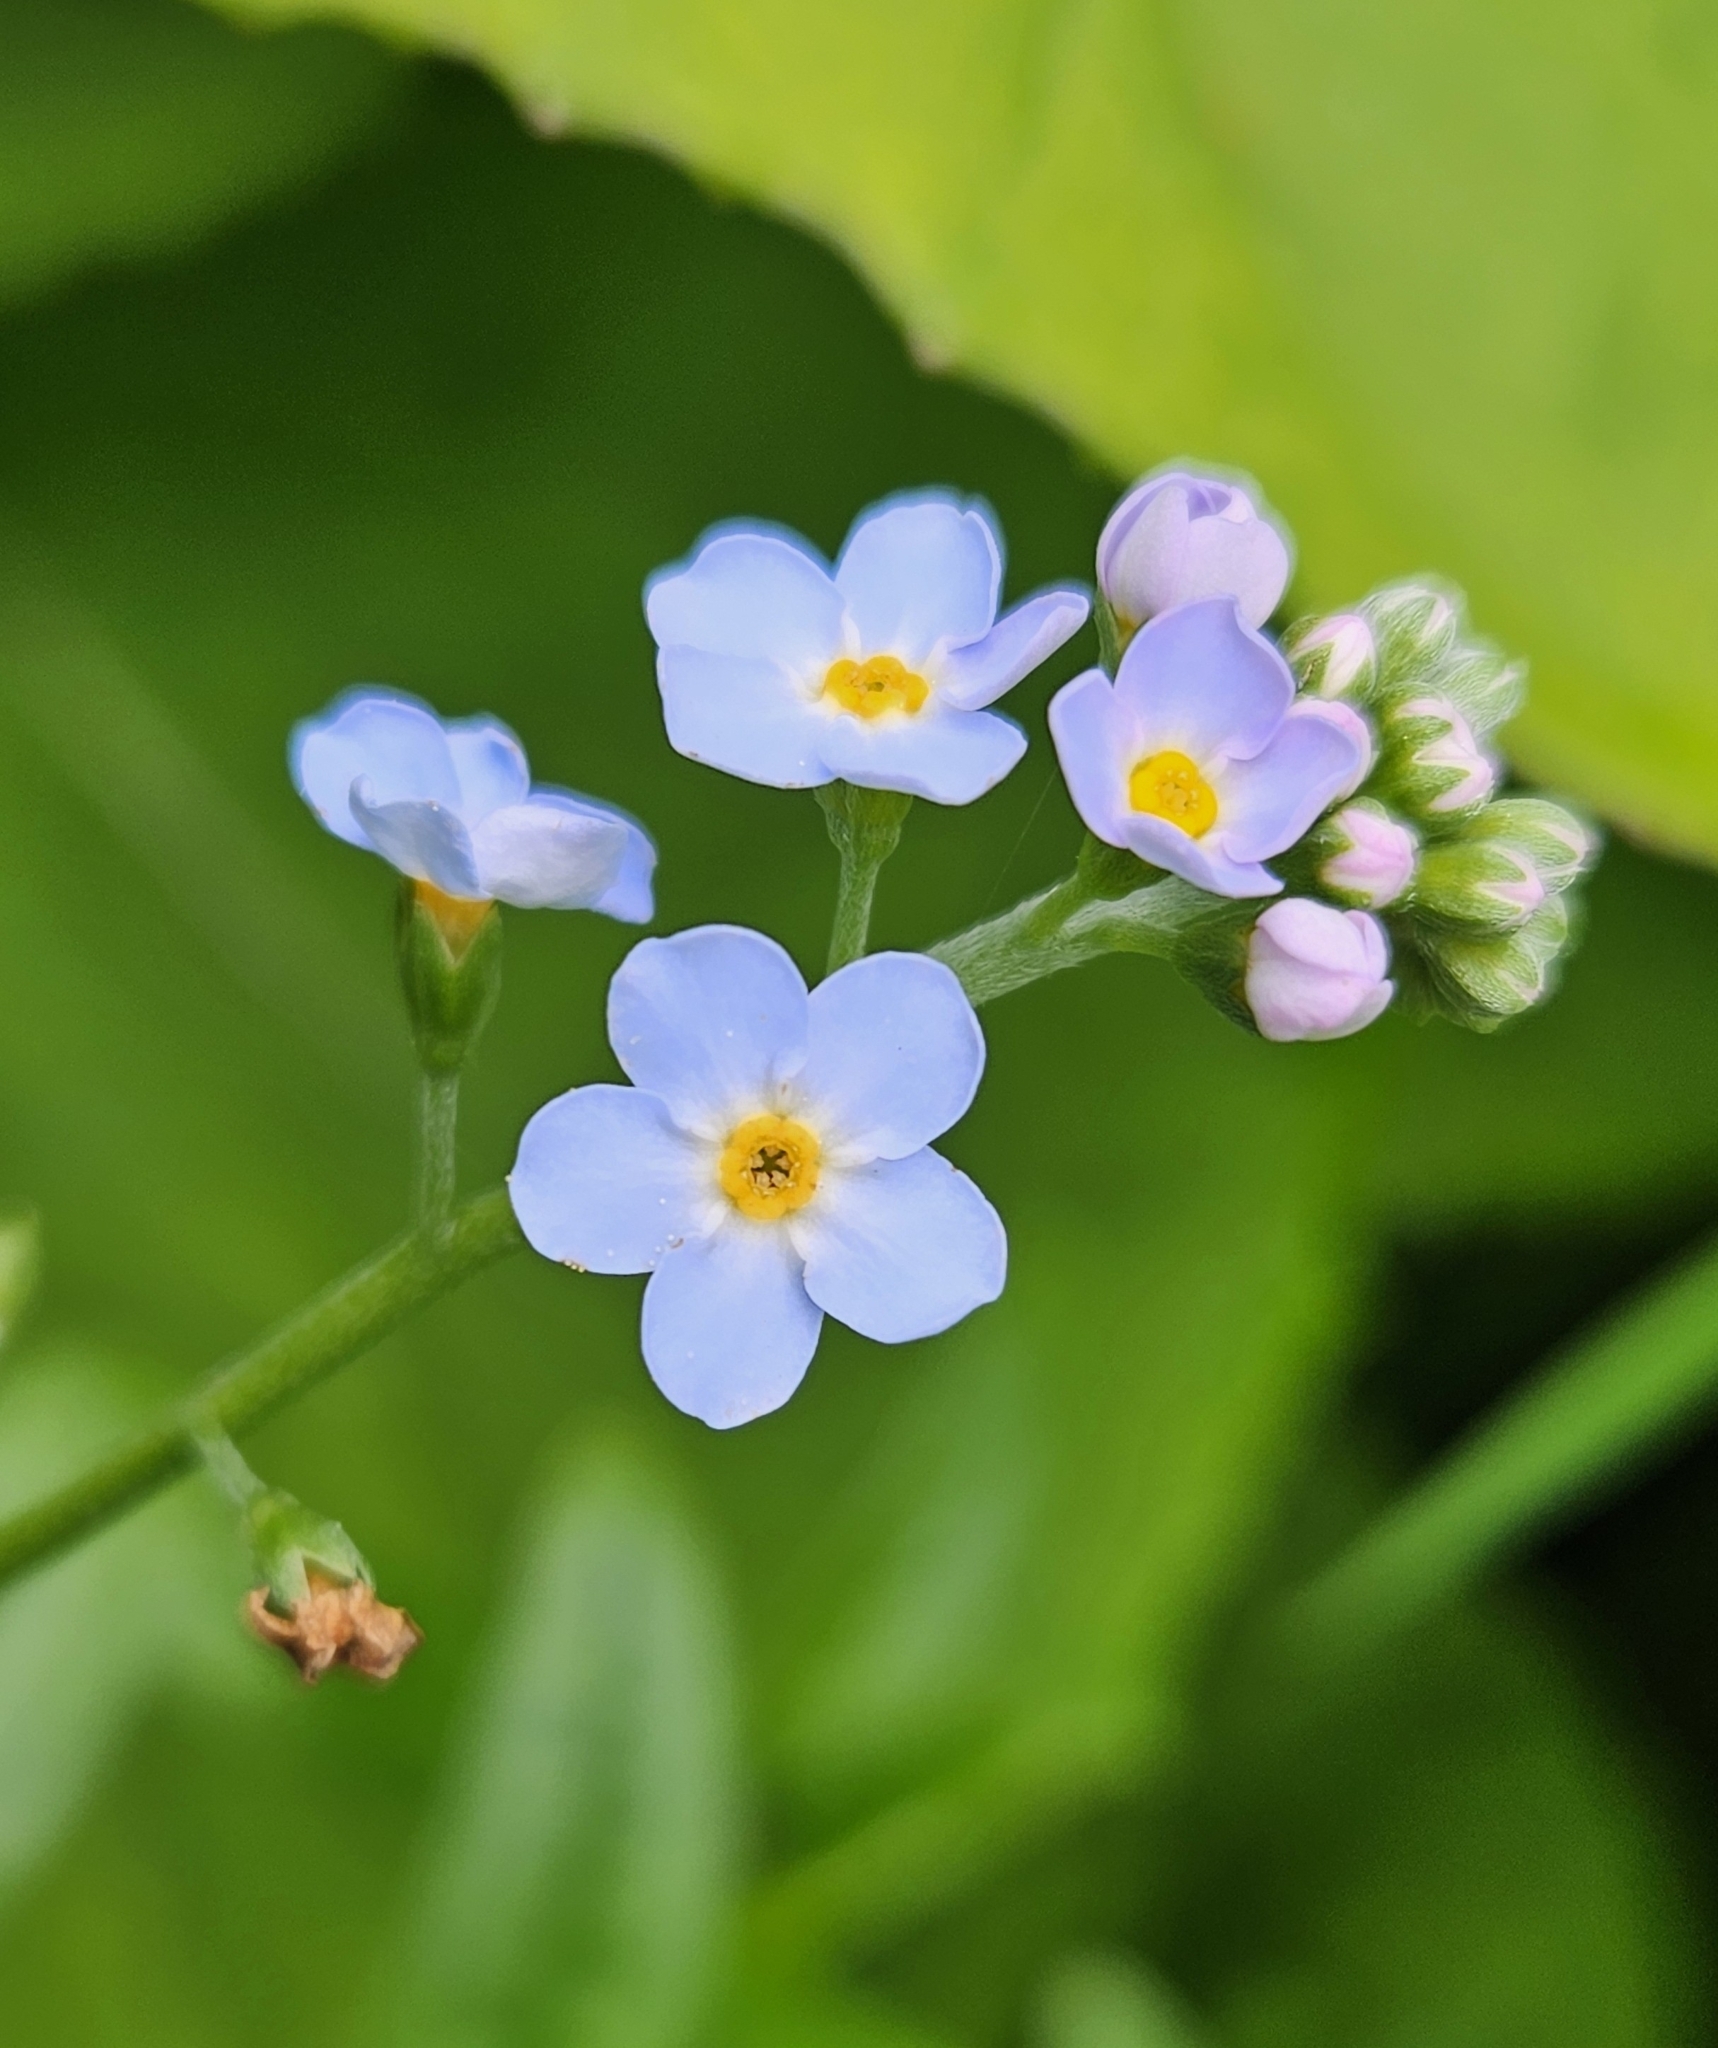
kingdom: Plantae
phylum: Tracheophyta
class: Magnoliopsida
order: Boraginales
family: Boraginaceae
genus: Myosotis
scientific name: Myosotis scorpioides
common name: Water forget-me-not
